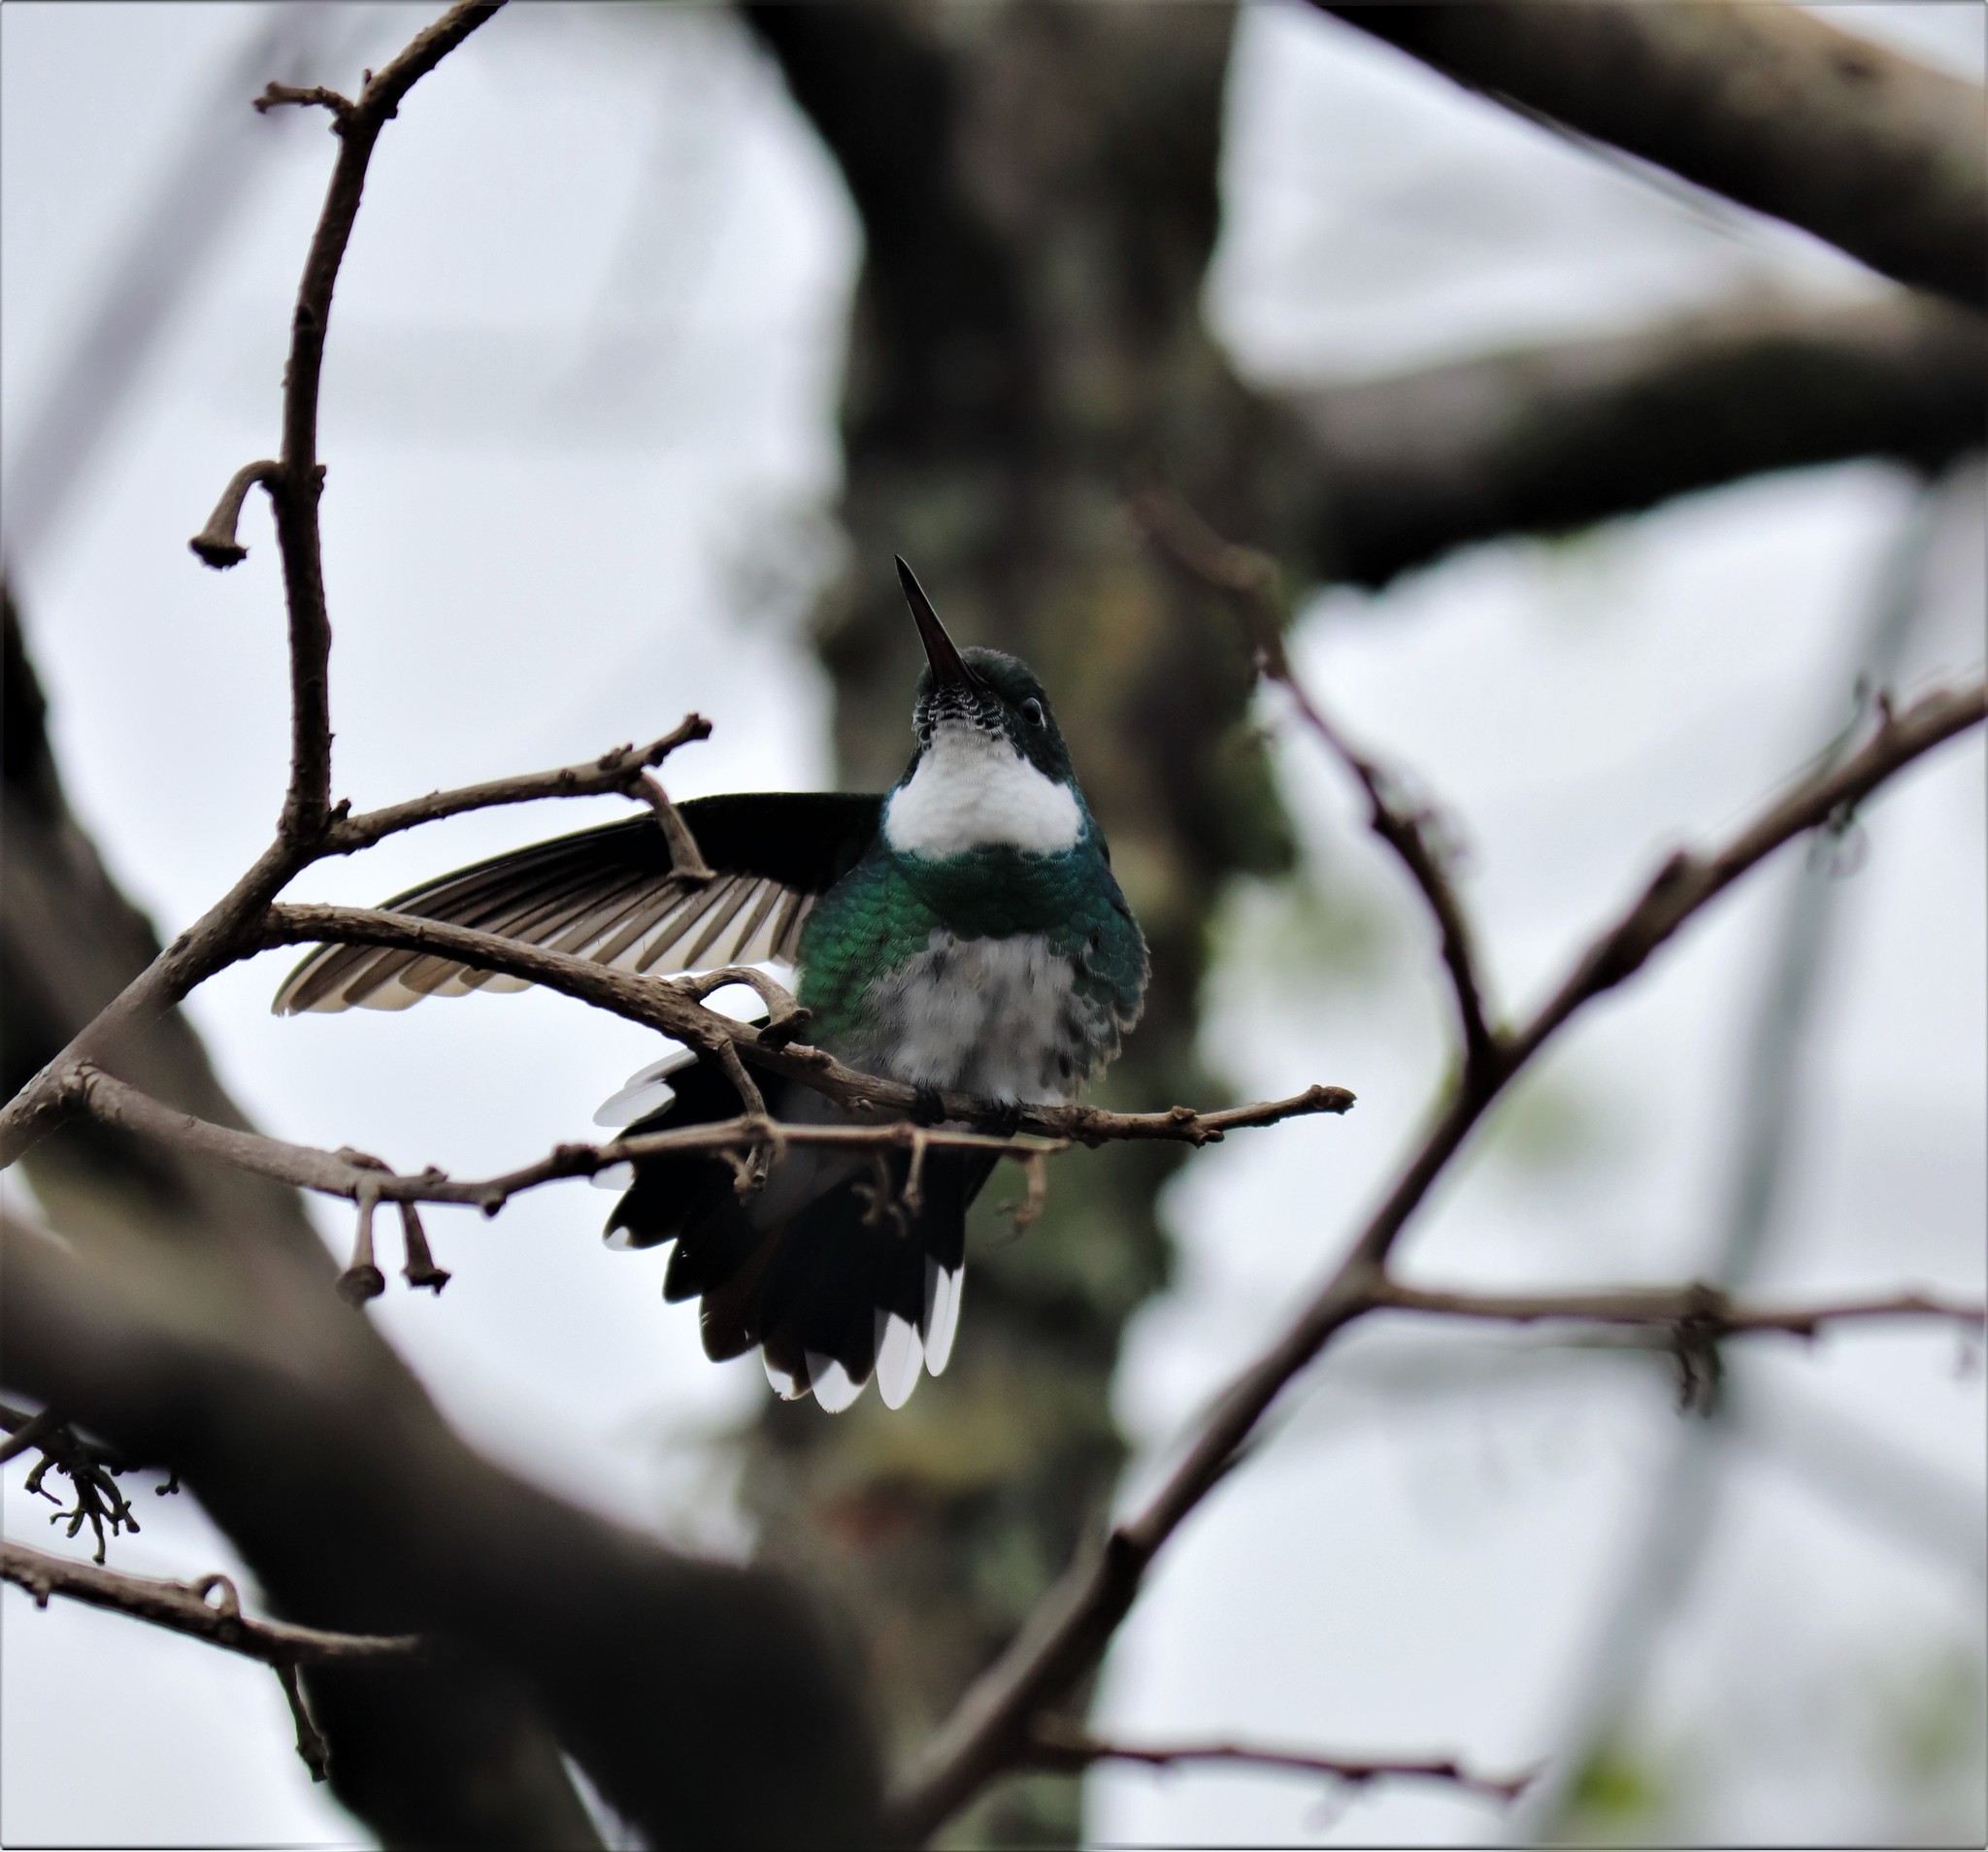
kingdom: Animalia
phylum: Chordata
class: Aves
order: Apodiformes
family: Trochilidae
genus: Leucochloris
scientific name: Leucochloris albicollis
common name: White-throated hummingbird
